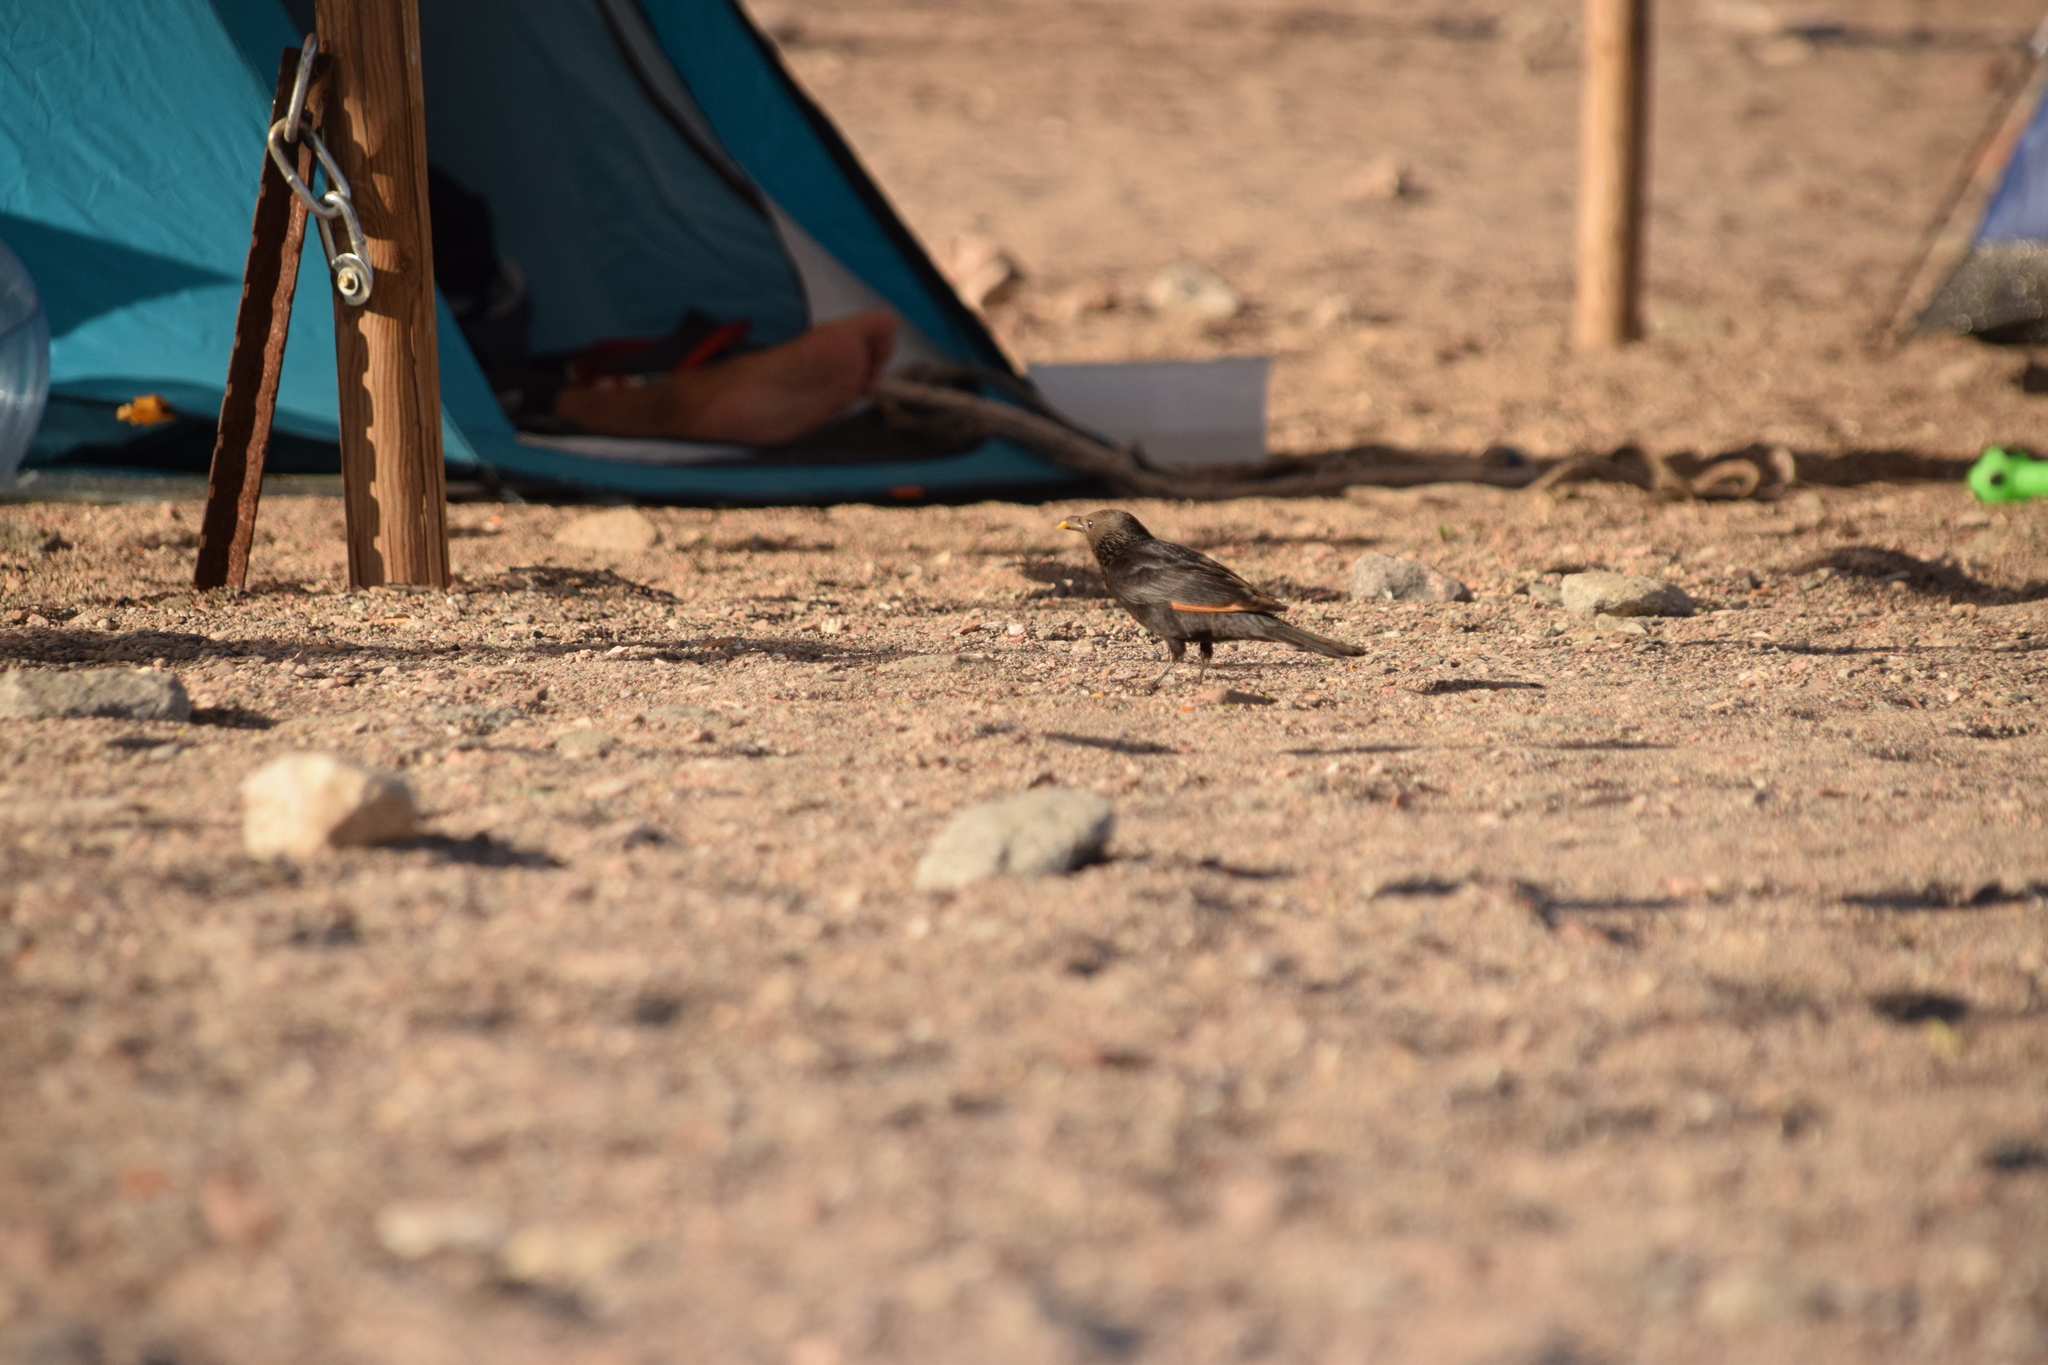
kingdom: Animalia
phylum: Chordata
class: Aves
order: Passeriformes
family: Sturnidae
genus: Onychognathus
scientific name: Onychognathus tristramii
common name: Tristram's starling
